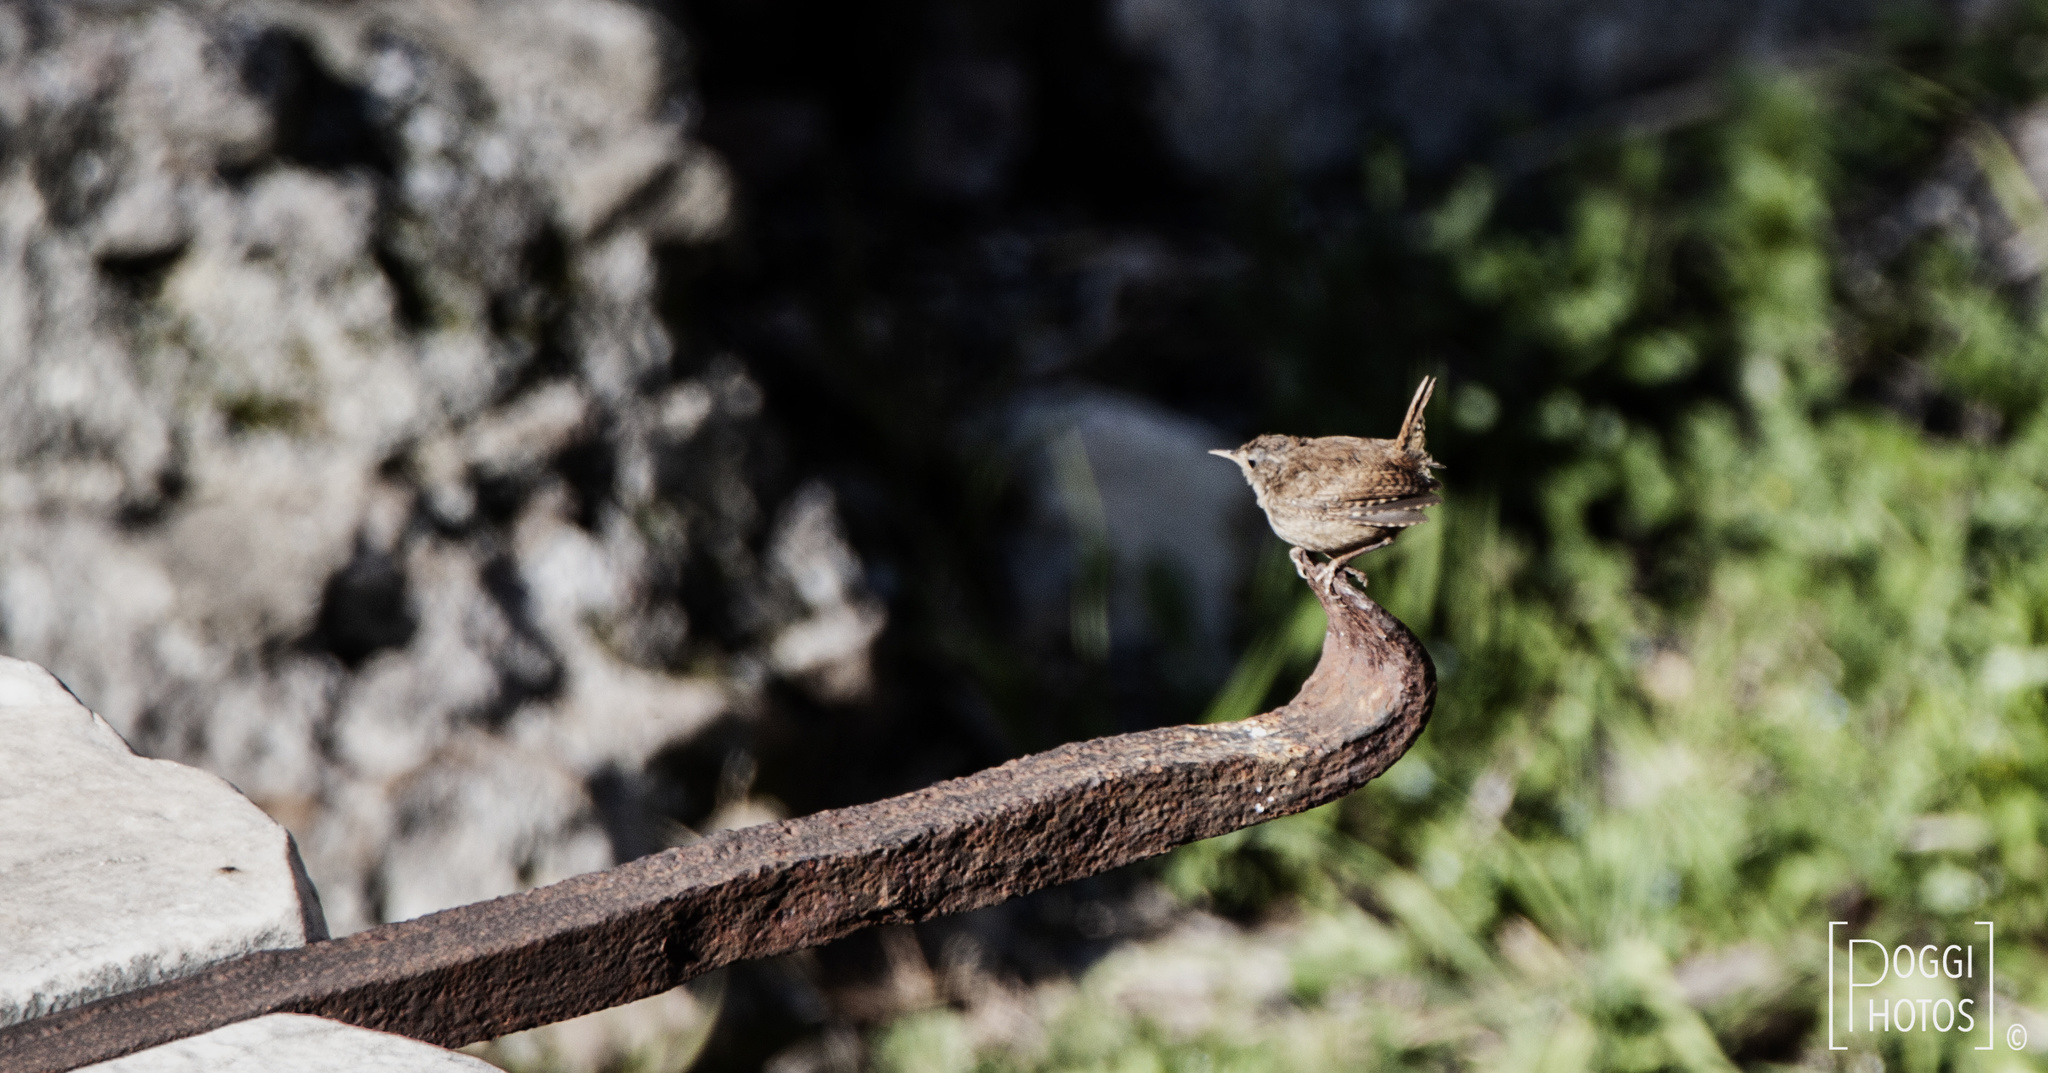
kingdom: Animalia
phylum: Chordata
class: Aves
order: Passeriformes
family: Troglodytidae
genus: Troglodytes
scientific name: Troglodytes troglodytes
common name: Eurasian wren
